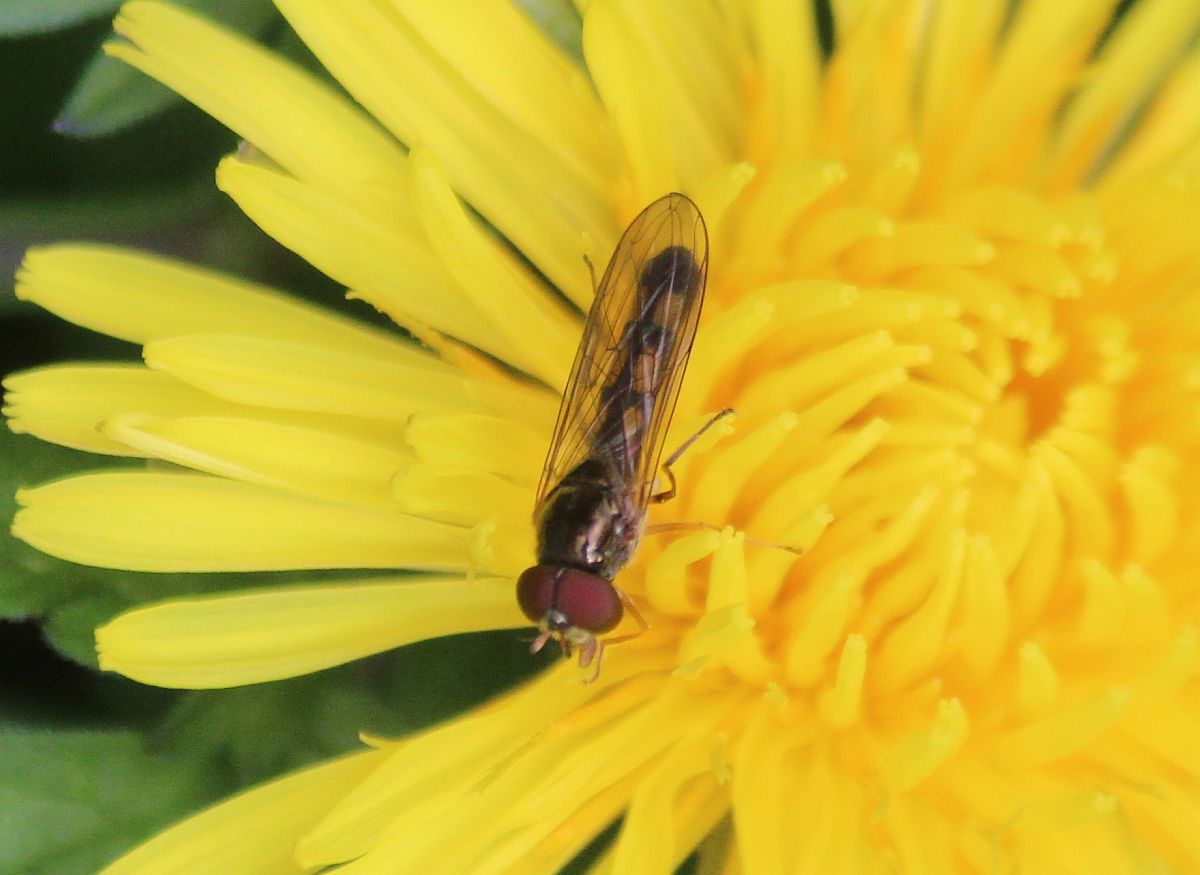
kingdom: Animalia
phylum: Arthropoda
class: Insecta
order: Diptera
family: Syrphidae
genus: Melanostoma
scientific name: Melanostoma scalare
